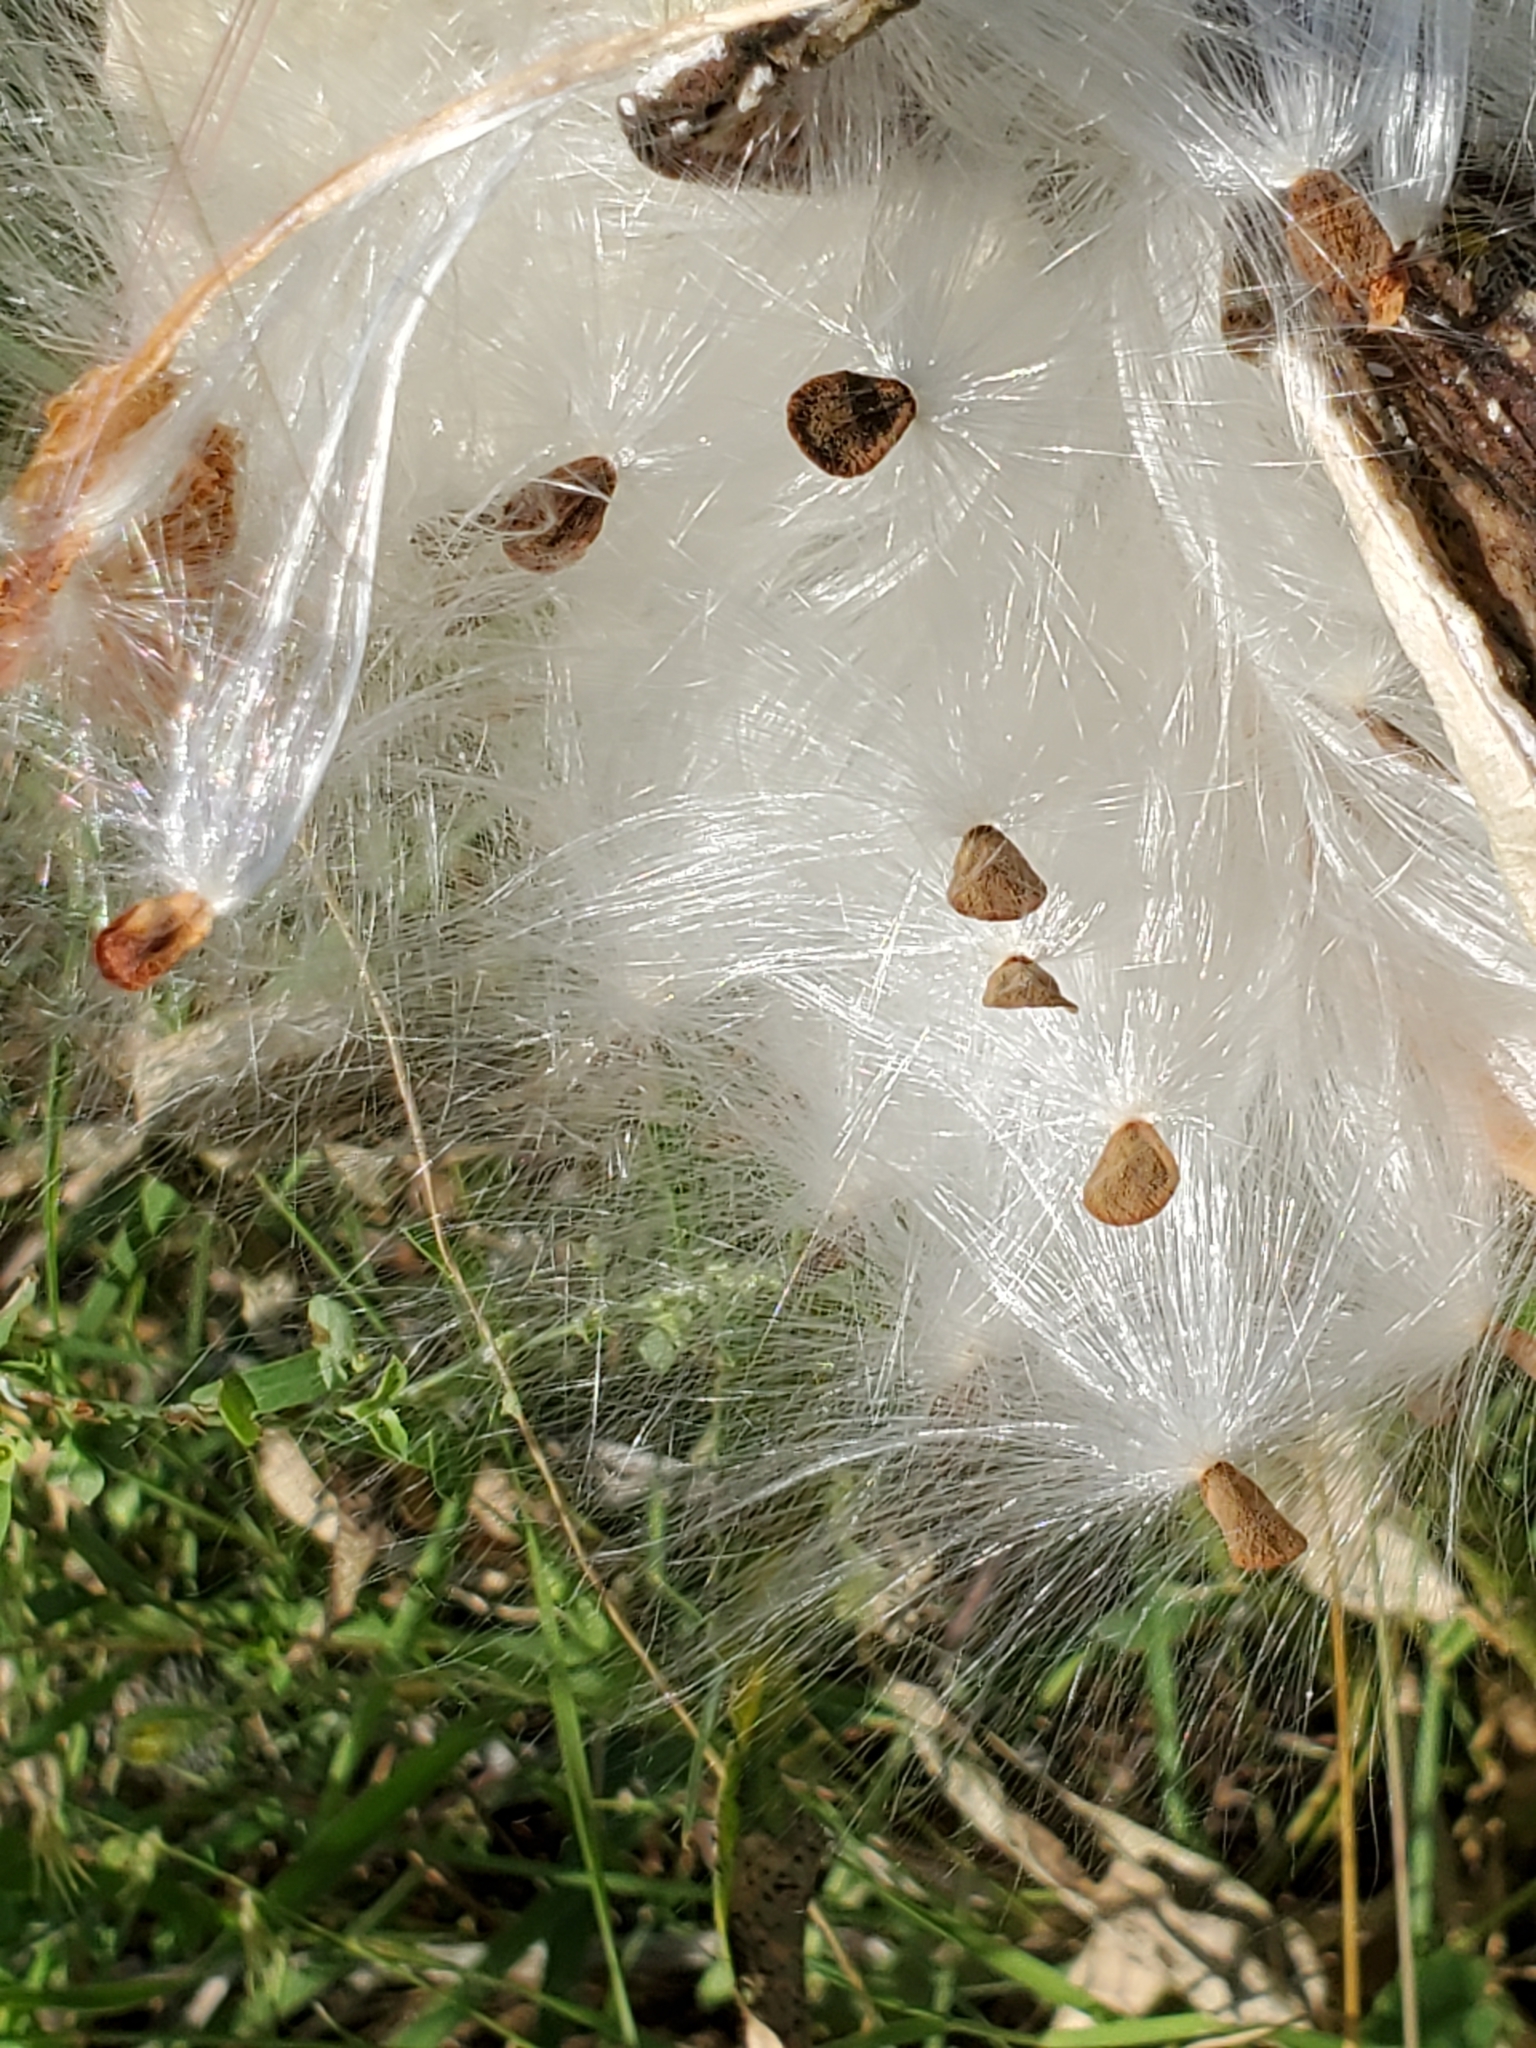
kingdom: Plantae
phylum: Tracheophyta
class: Magnoliopsida
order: Gentianales
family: Apocynaceae
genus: Asclepias
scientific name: Asclepias asperula
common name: Antelope horns
